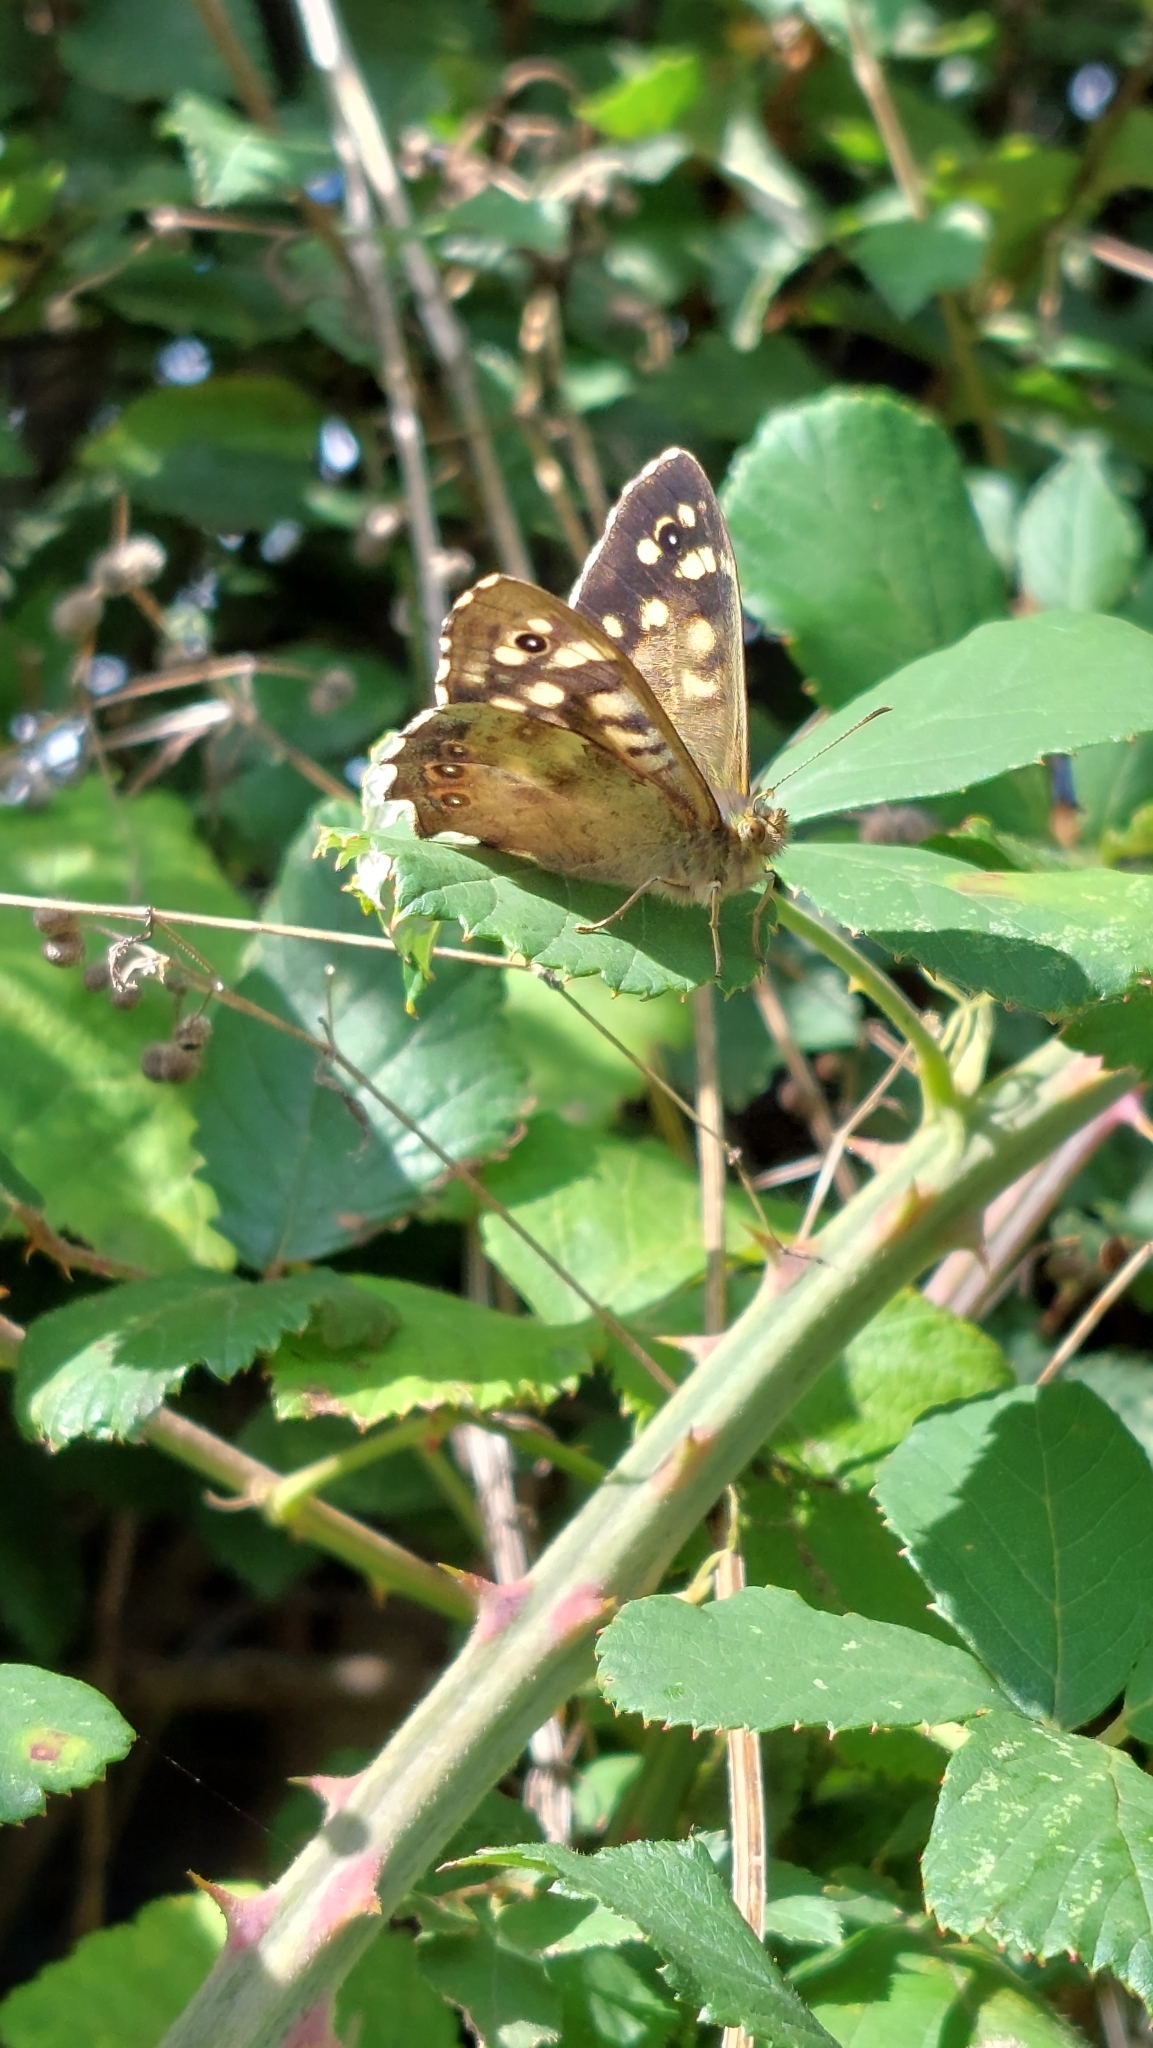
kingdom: Animalia
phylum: Arthropoda
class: Insecta
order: Lepidoptera
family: Nymphalidae
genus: Pararge
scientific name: Pararge aegeria
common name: Speckled wood
